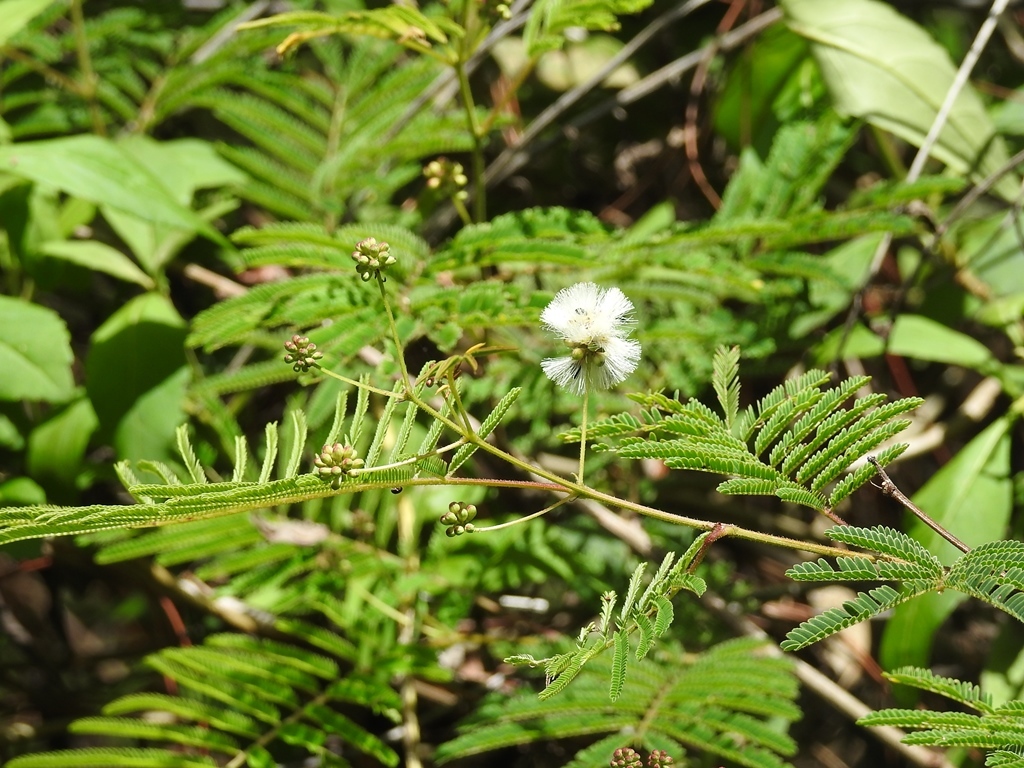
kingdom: Plantae
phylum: Tracheophyta
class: Magnoliopsida
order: Fabales
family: Fabaceae
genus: Acaciella
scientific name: Acaciella angustissima
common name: Prairie acacia
